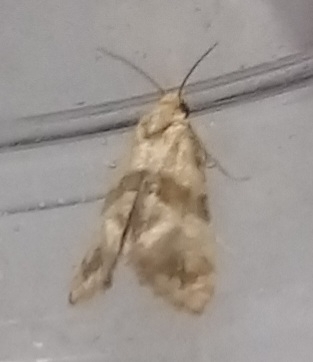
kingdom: Animalia
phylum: Arthropoda
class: Insecta
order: Lepidoptera
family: Tortricidae
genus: Phalonidia
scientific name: Phalonidia contractana
